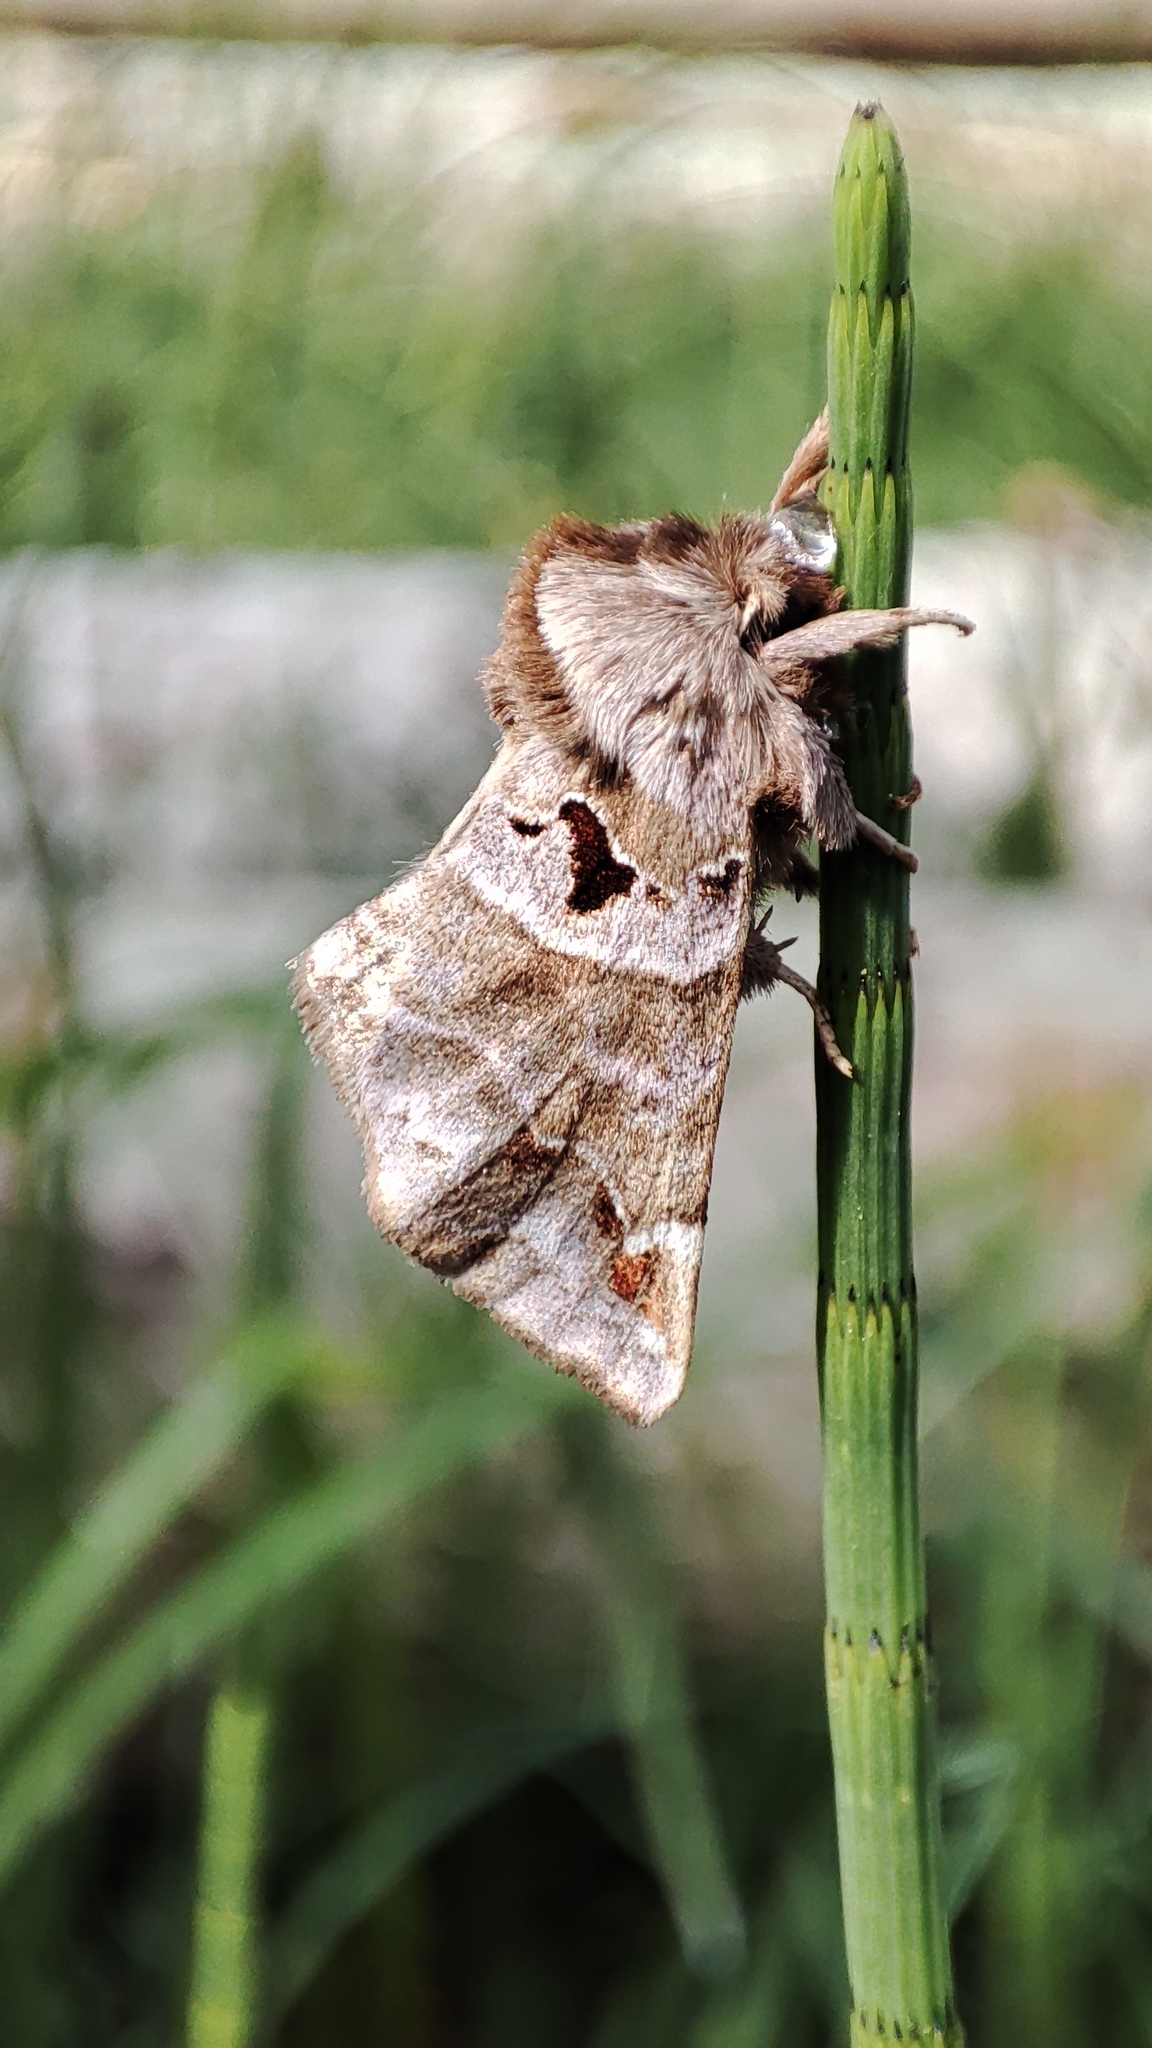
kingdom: Animalia
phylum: Arthropoda
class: Insecta
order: Lepidoptera
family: Notodontidae
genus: Pygaera
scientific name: Pygaera timon
